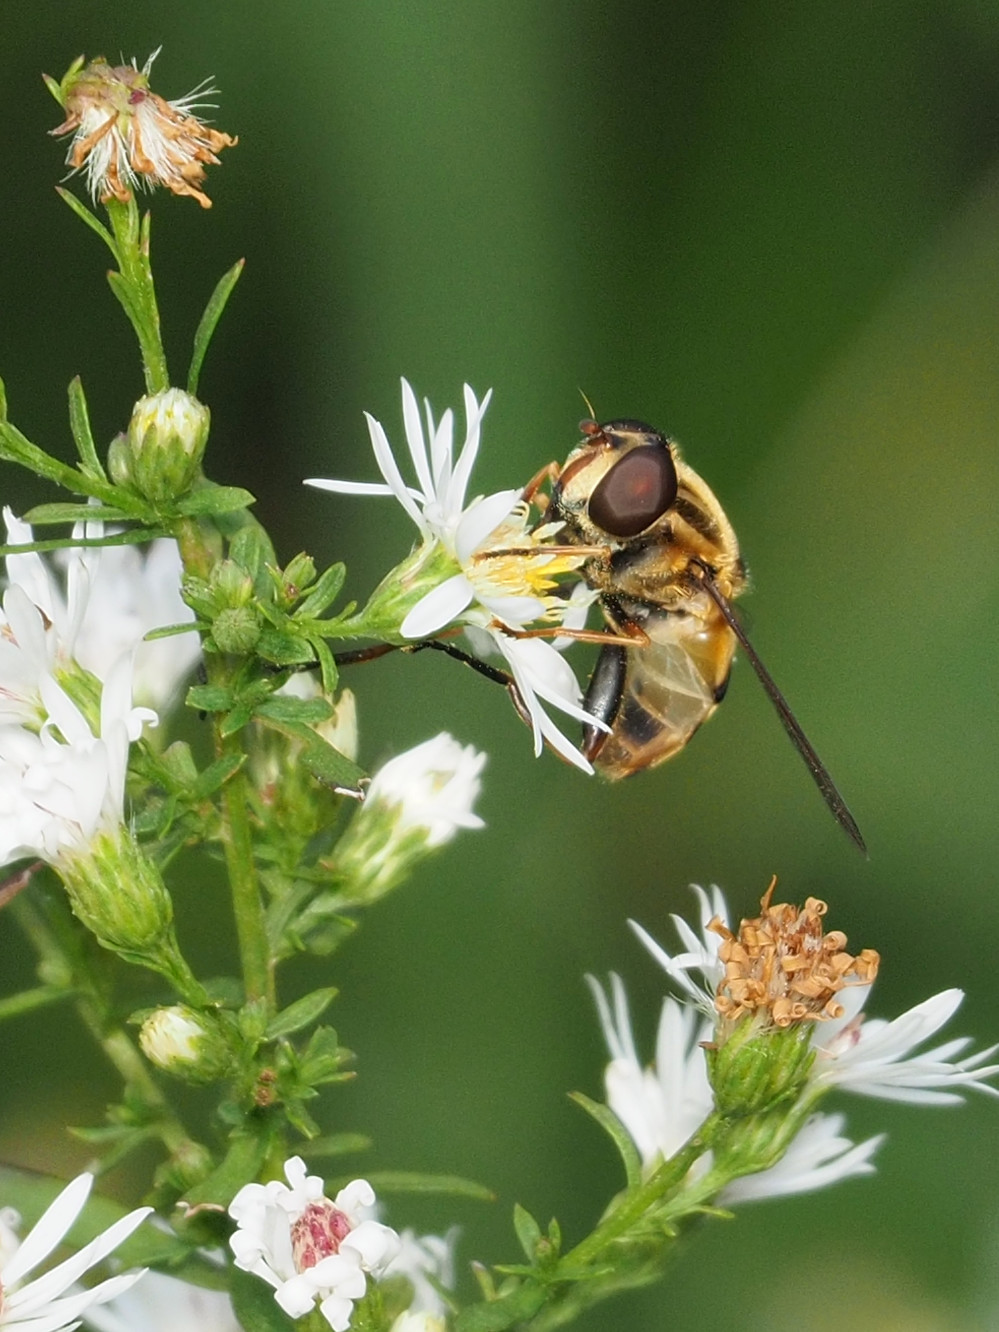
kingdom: Animalia
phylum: Arthropoda
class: Insecta
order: Diptera
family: Syrphidae
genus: Helophilus
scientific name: Helophilus fasciatus
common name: Narrow-headed marsh fly
